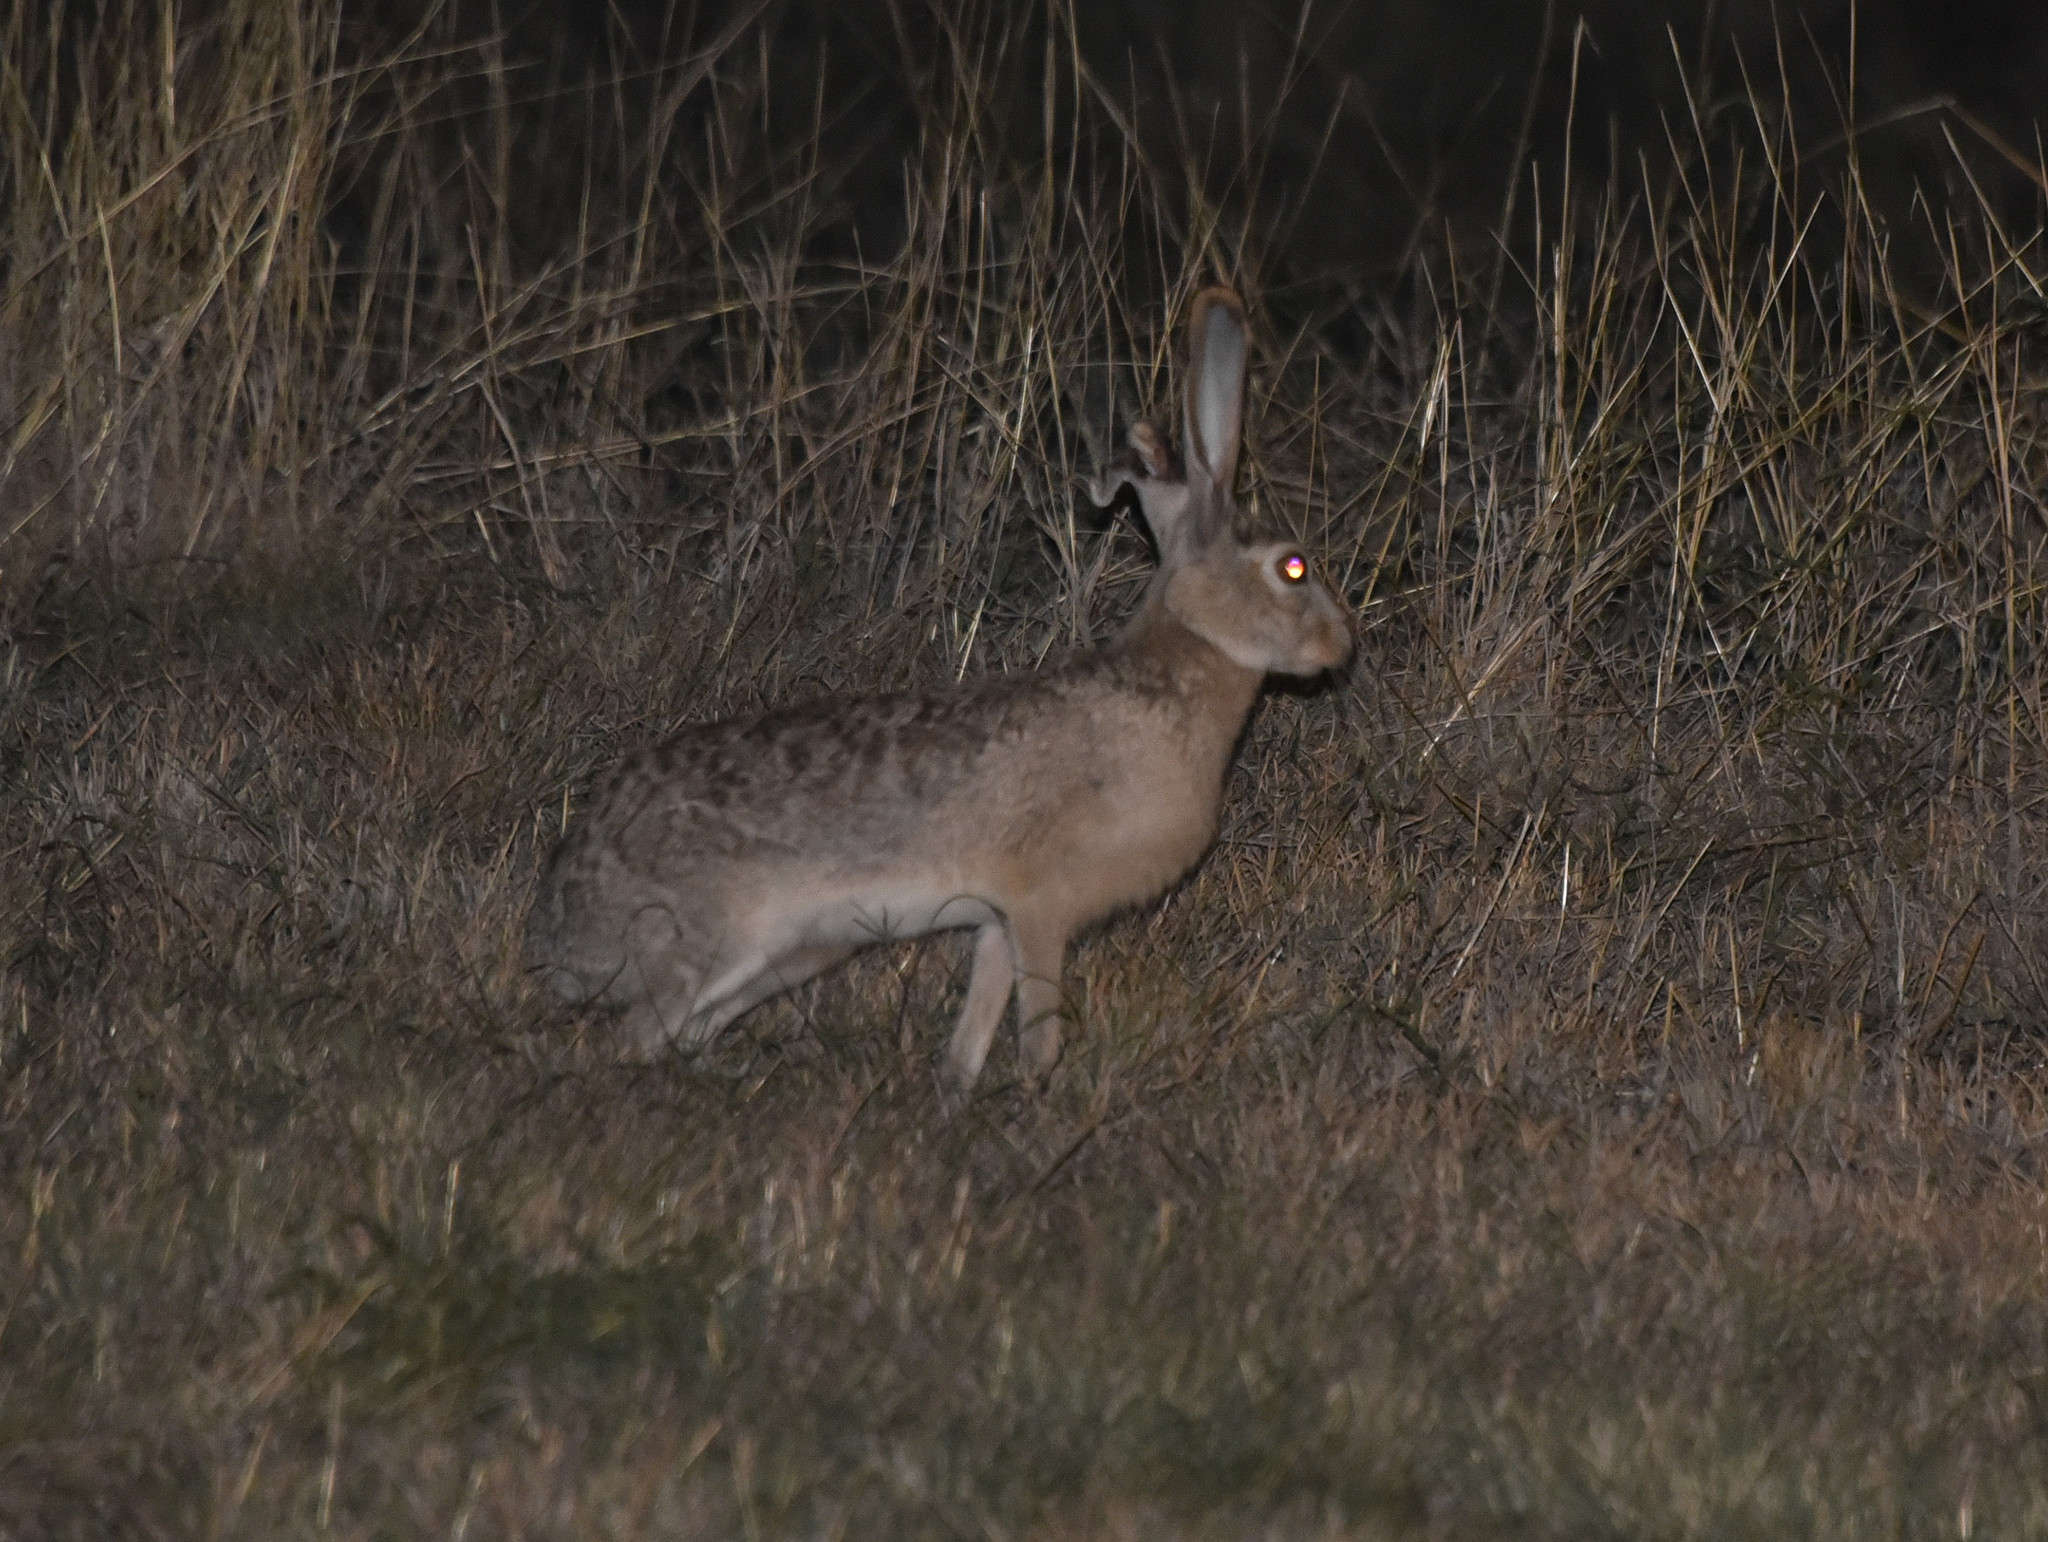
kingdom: Animalia
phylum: Chordata
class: Mammalia
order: Lagomorpha
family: Leporidae
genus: Lepus
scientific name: Lepus californicus
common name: Black-tailed jackrabbit
